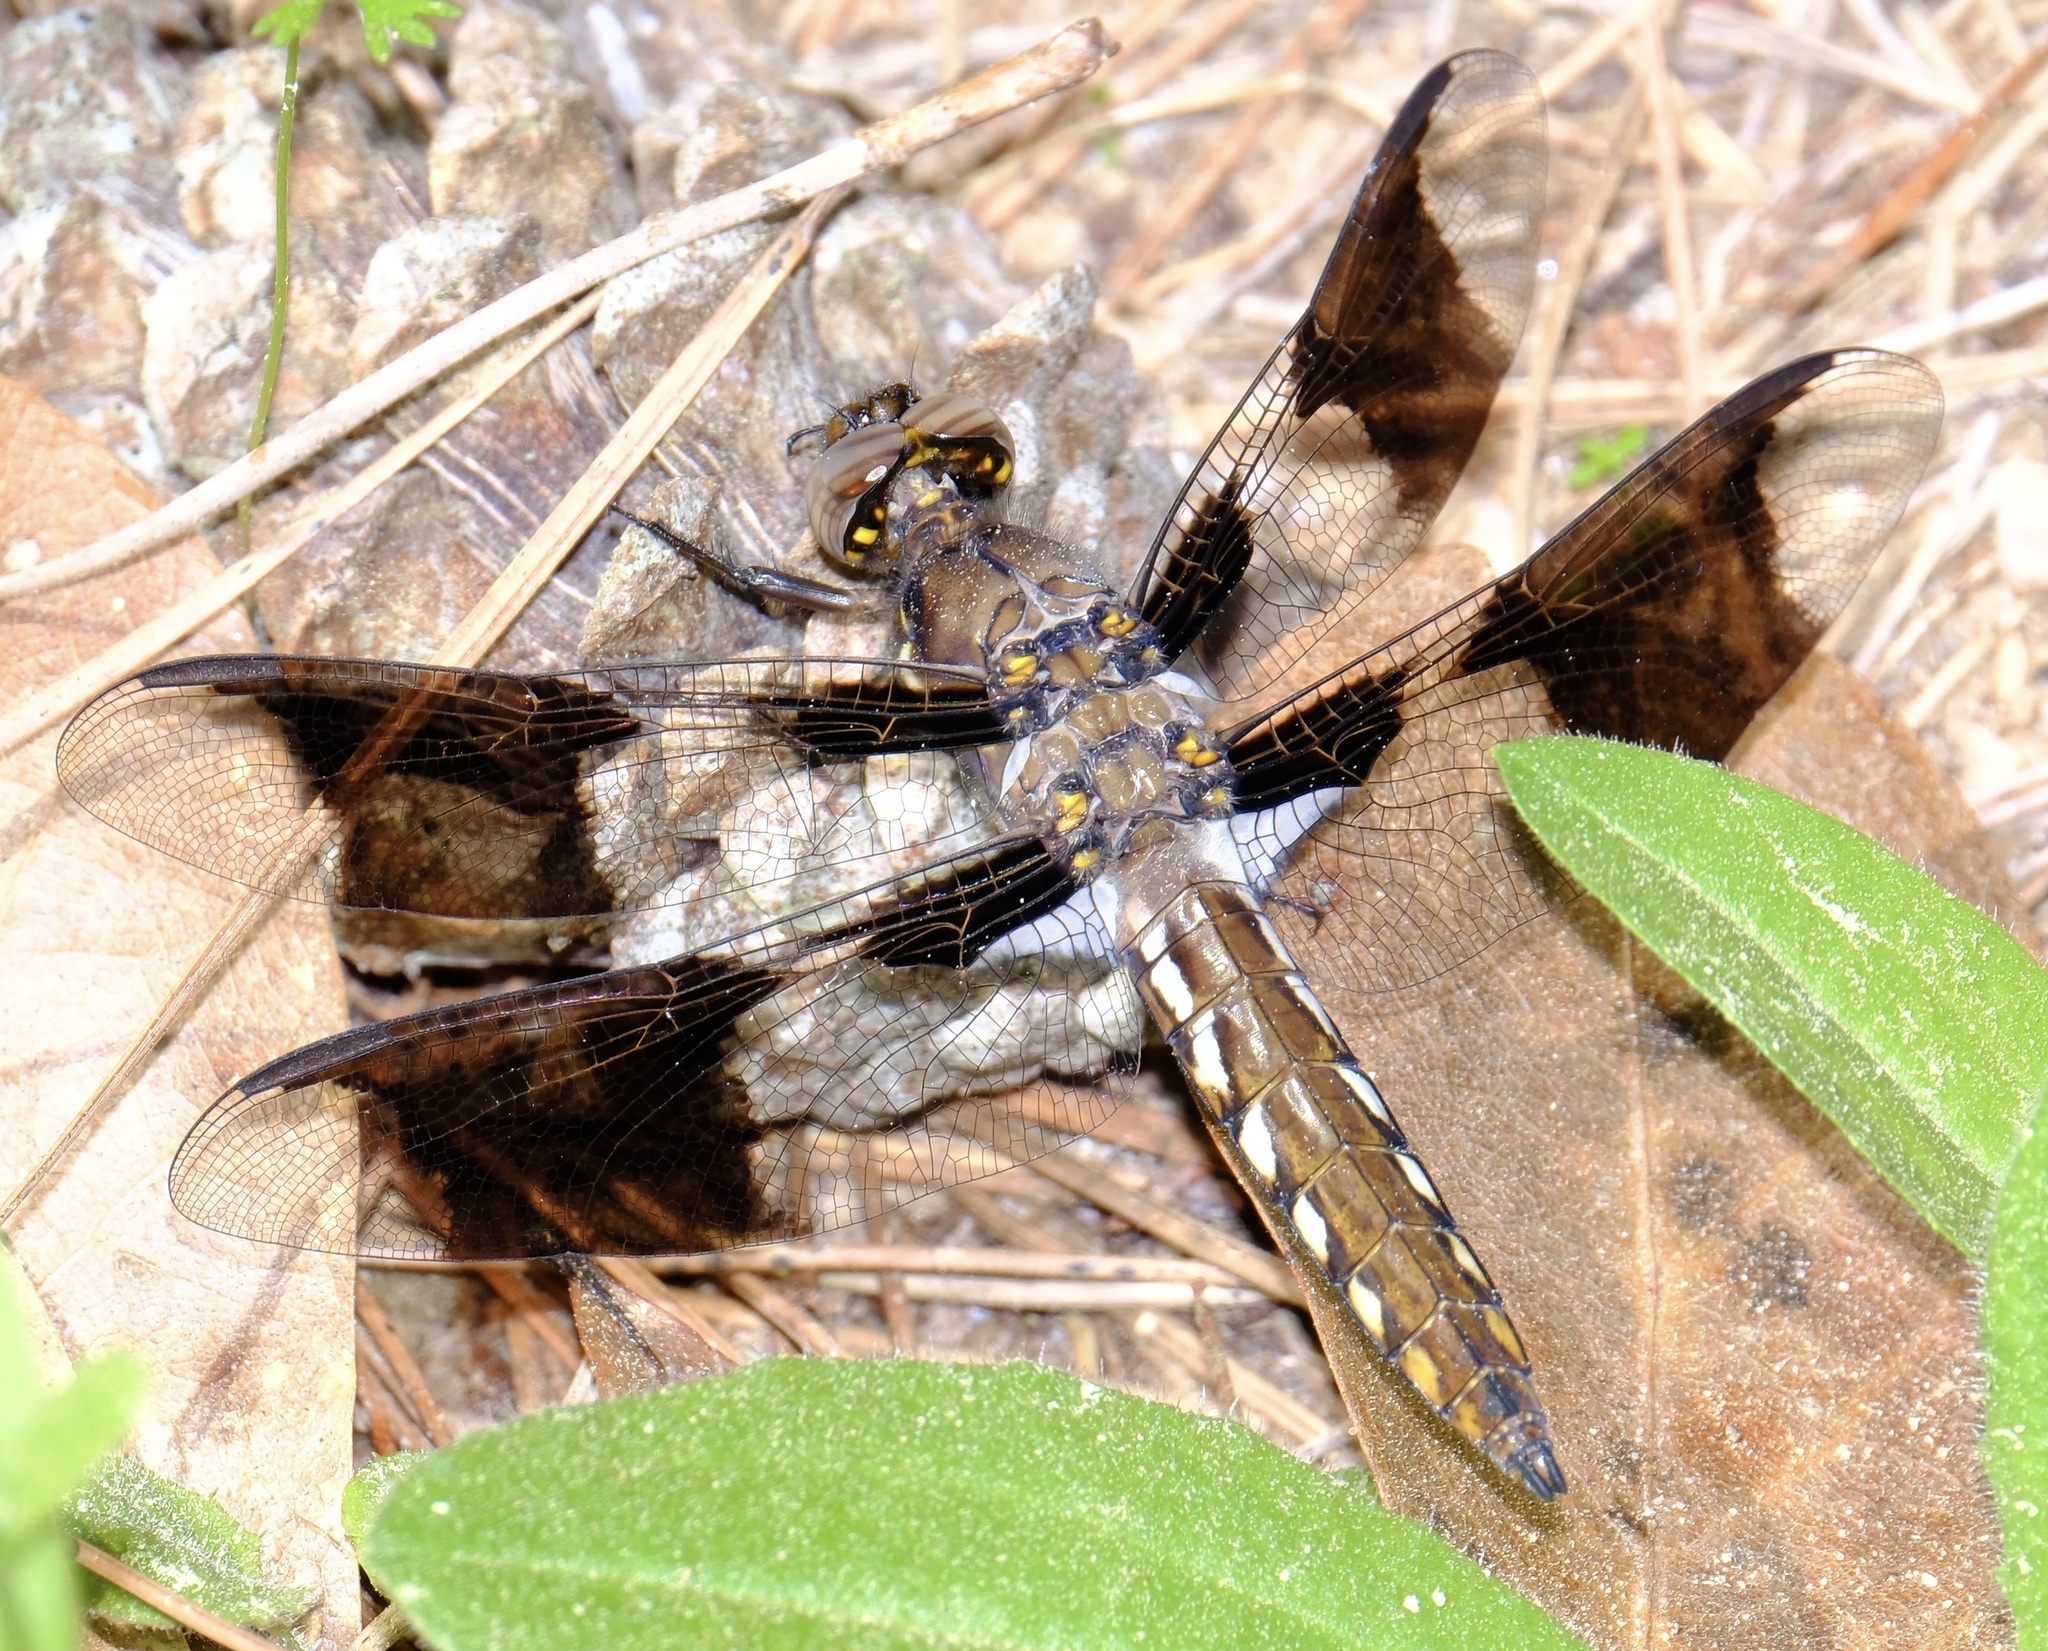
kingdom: Animalia
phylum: Arthropoda
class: Insecta
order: Odonata
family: Libellulidae
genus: Plathemis
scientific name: Plathemis lydia
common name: Common whitetail
